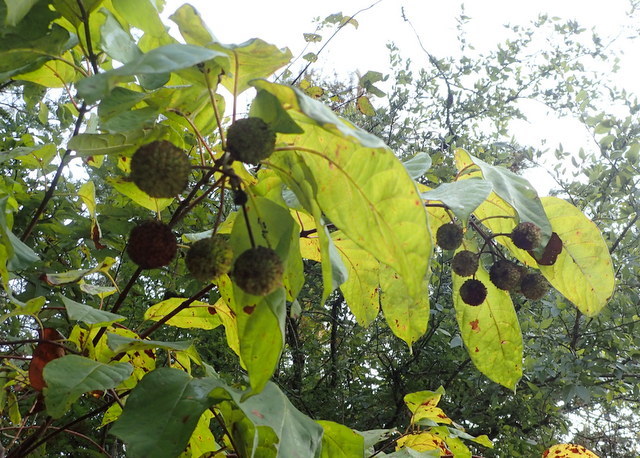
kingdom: Plantae
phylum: Tracheophyta
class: Magnoliopsida
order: Gentianales
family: Rubiaceae
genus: Cephalanthus
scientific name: Cephalanthus occidentalis
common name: Button-willow
